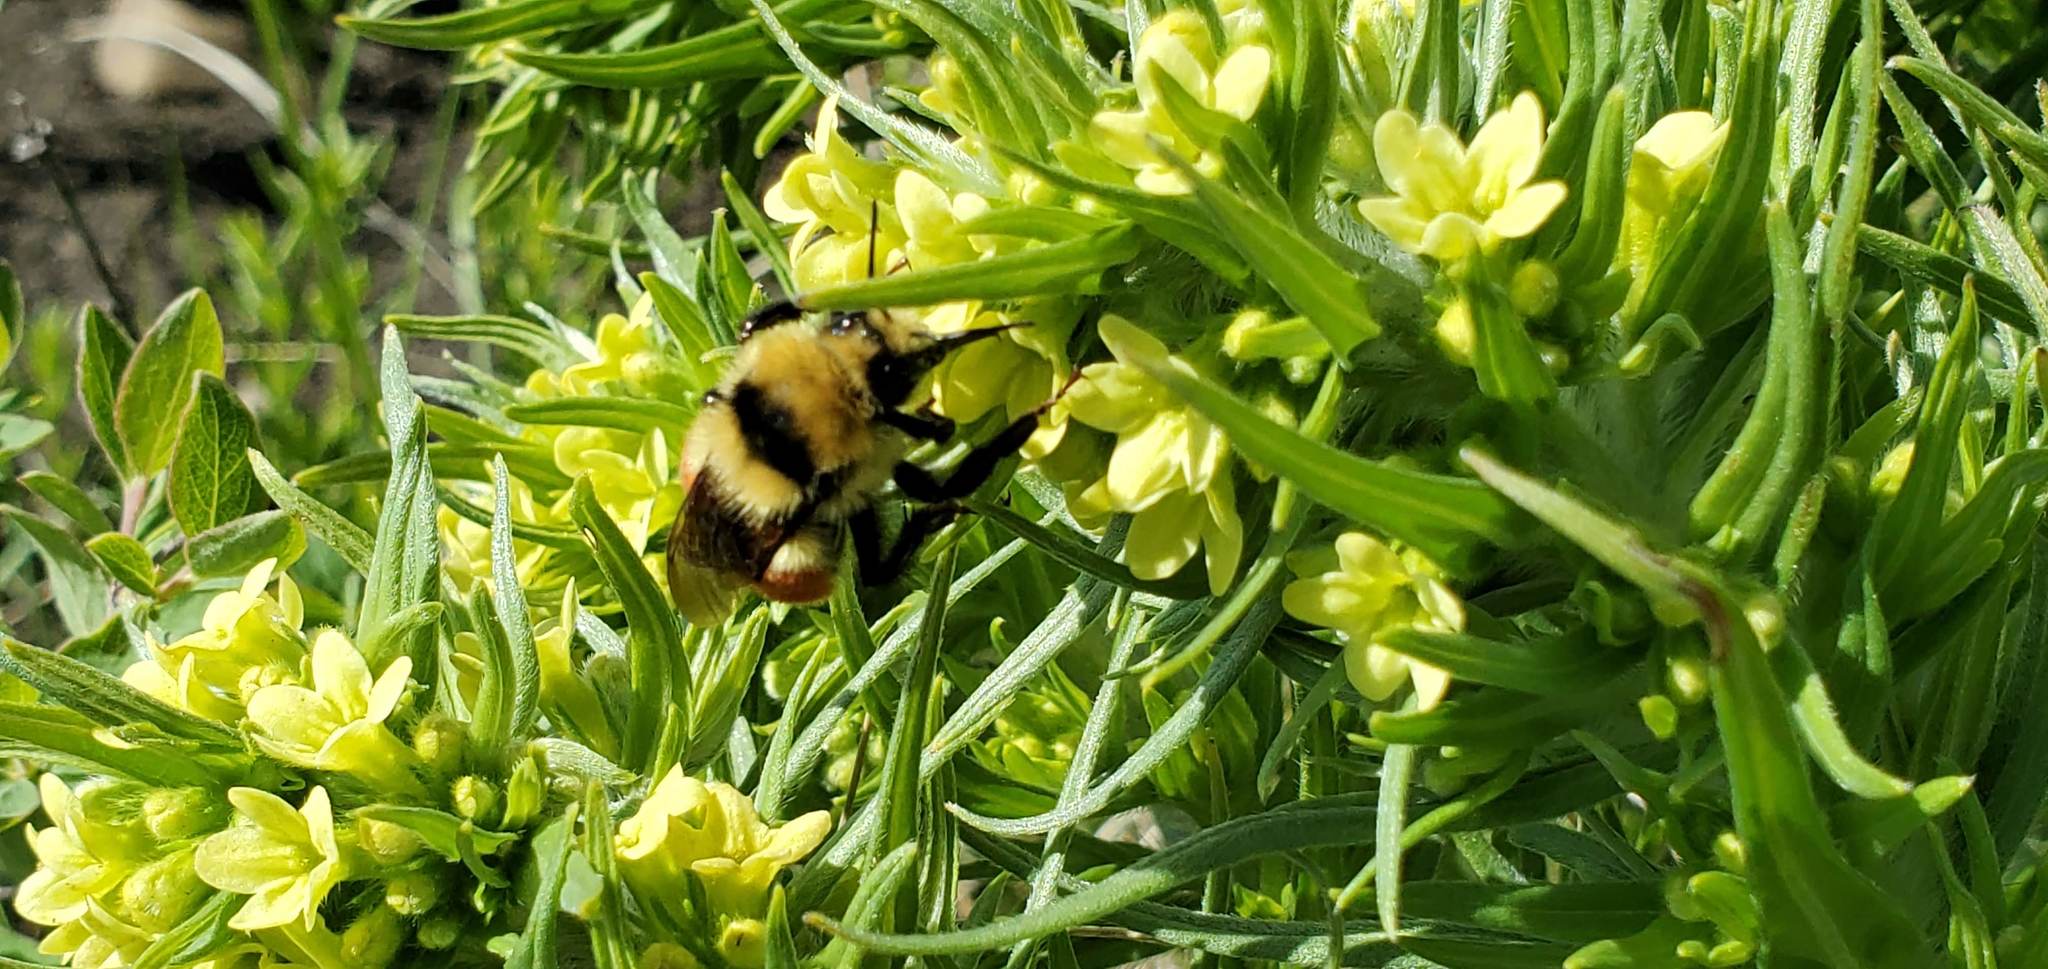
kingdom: Animalia
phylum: Arthropoda
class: Insecta
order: Hymenoptera
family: Apidae
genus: Bombus
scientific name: Bombus huntii
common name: Hunt bumble bee
